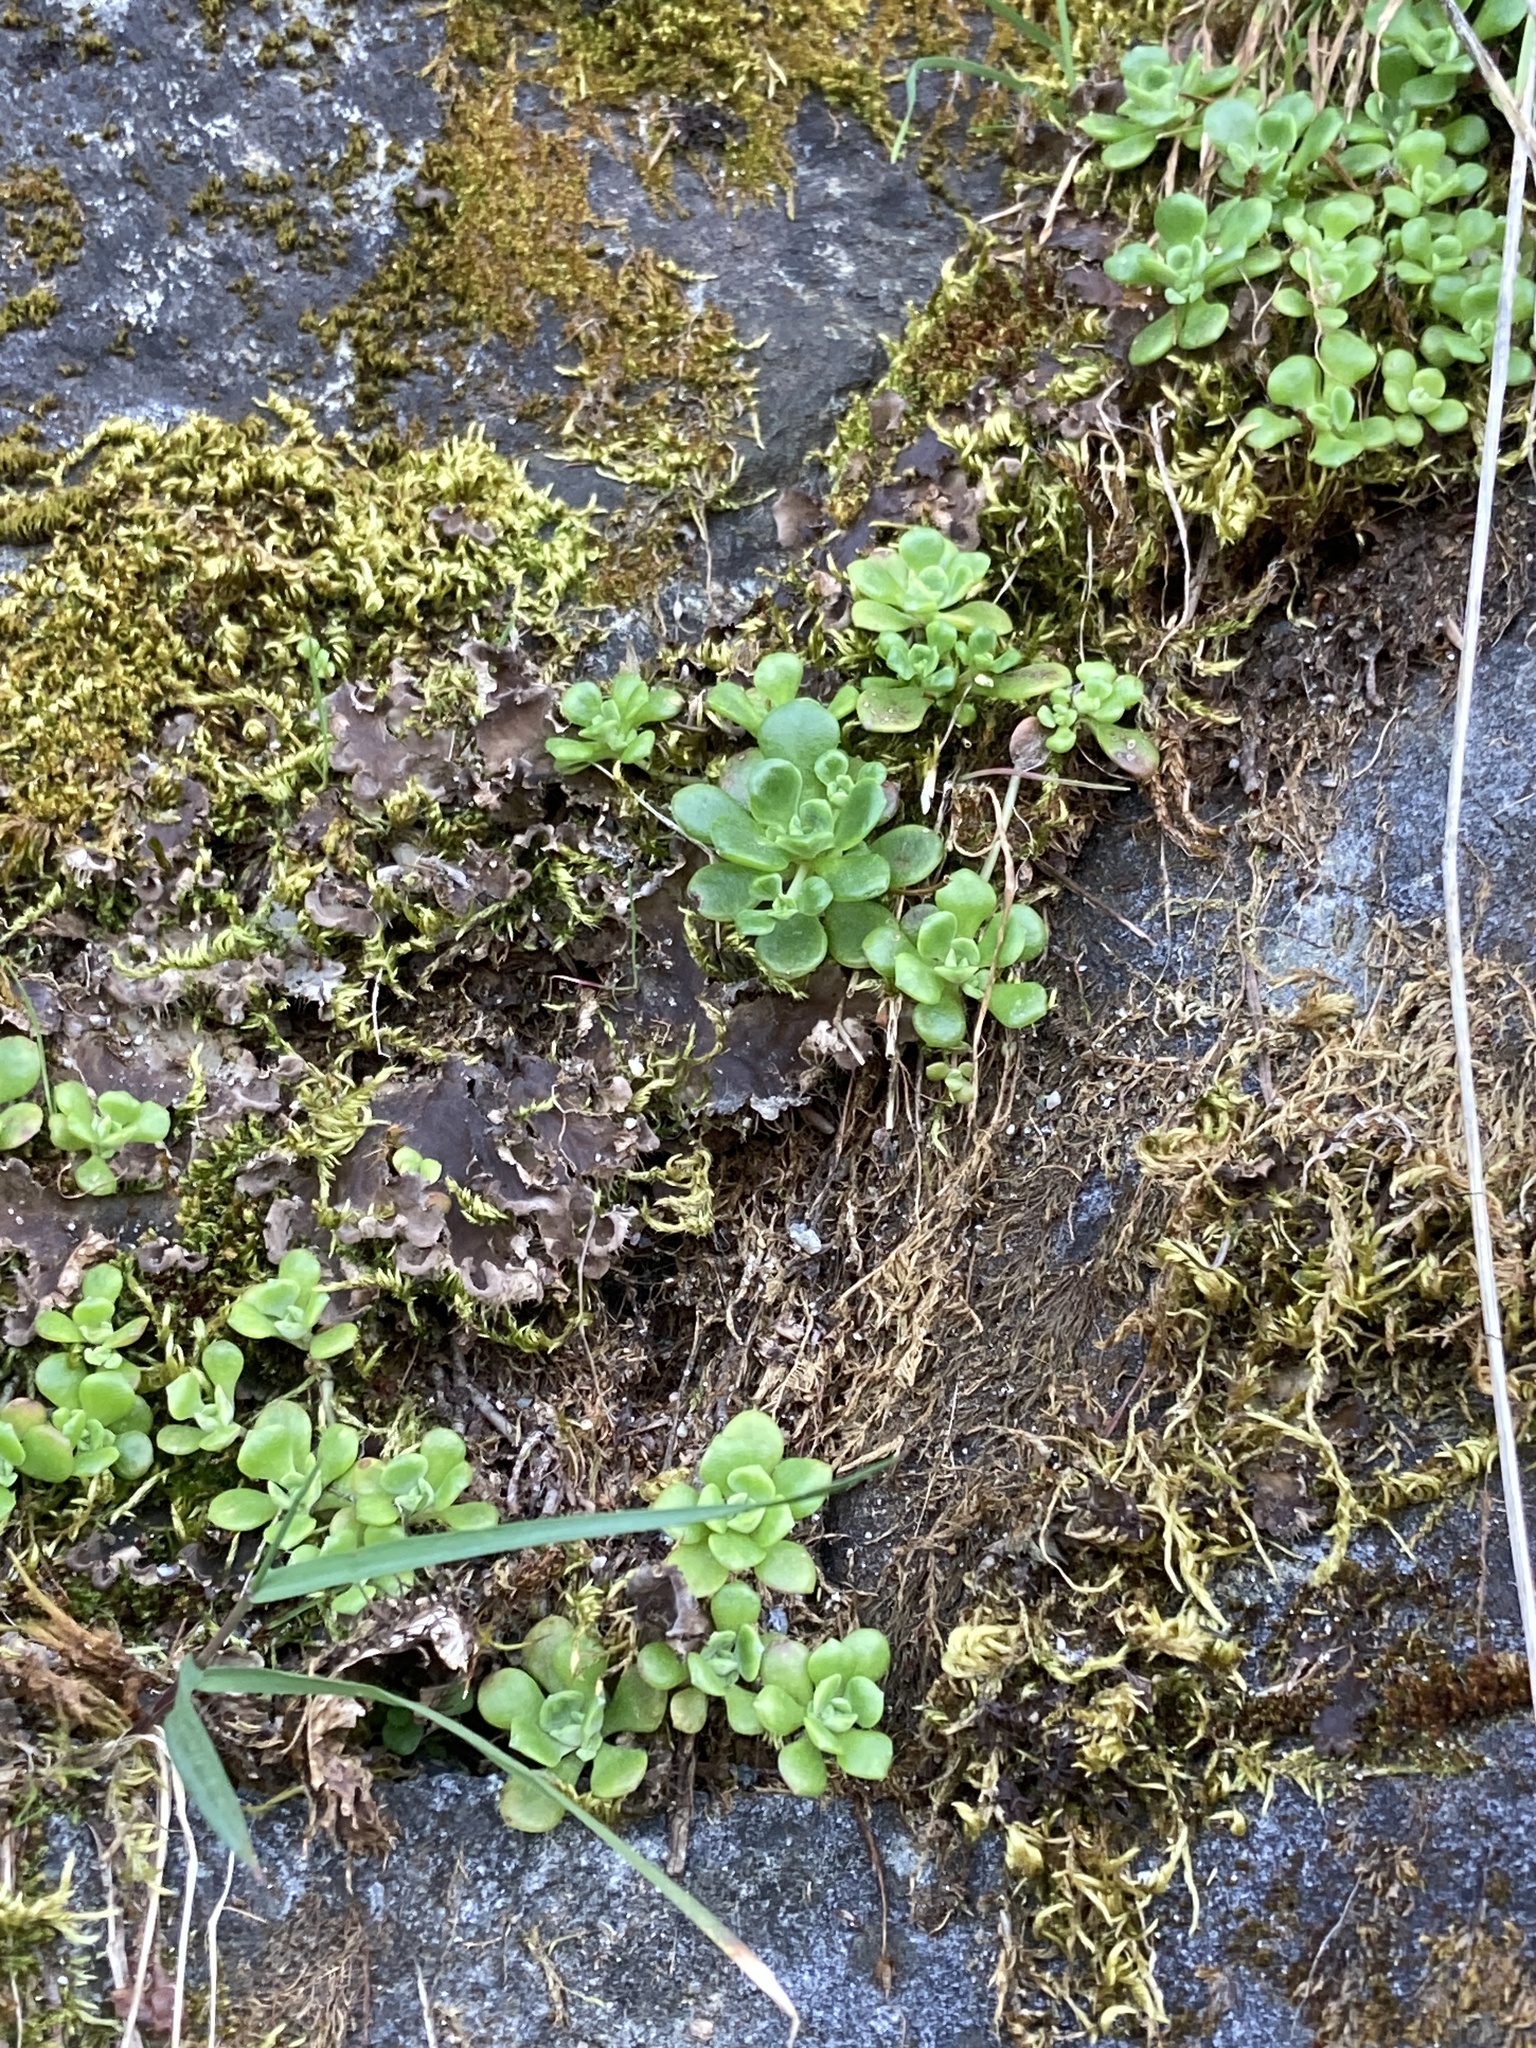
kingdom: Plantae
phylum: Tracheophyta
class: Magnoliopsida
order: Saxifragales
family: Crassulaceae
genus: Sedum
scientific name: Sedum spathulifolium
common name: Colorado stonecrop
